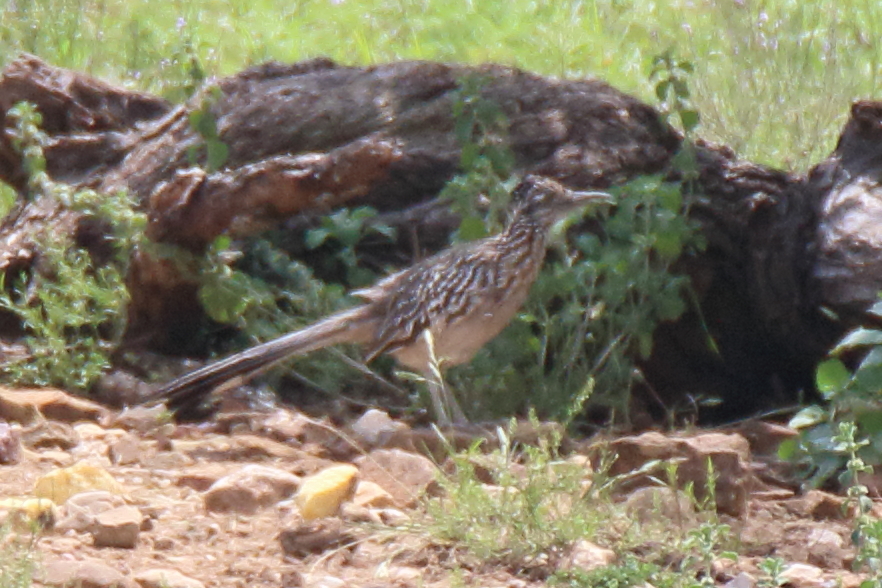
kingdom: Animalia
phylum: Chordata
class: Aves
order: Cuculiformes
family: Cuculidae
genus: Geococcyx
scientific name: Geococcyx californianus
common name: Greater roadrunner
